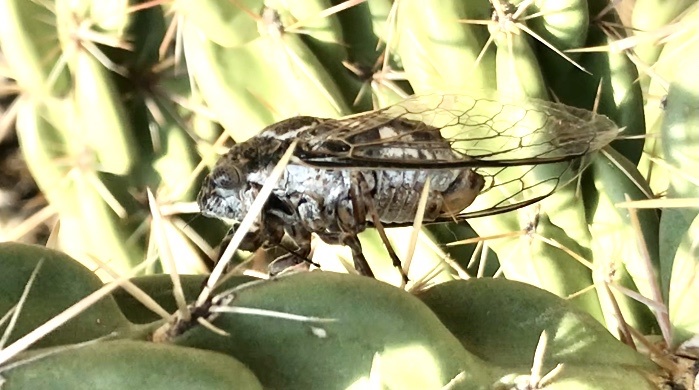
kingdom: Animalia
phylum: Arthropoda
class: Insecta
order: Hemiptera
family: Cicadidae
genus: Cacama
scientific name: Cacama valvata
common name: Cactus dodger
